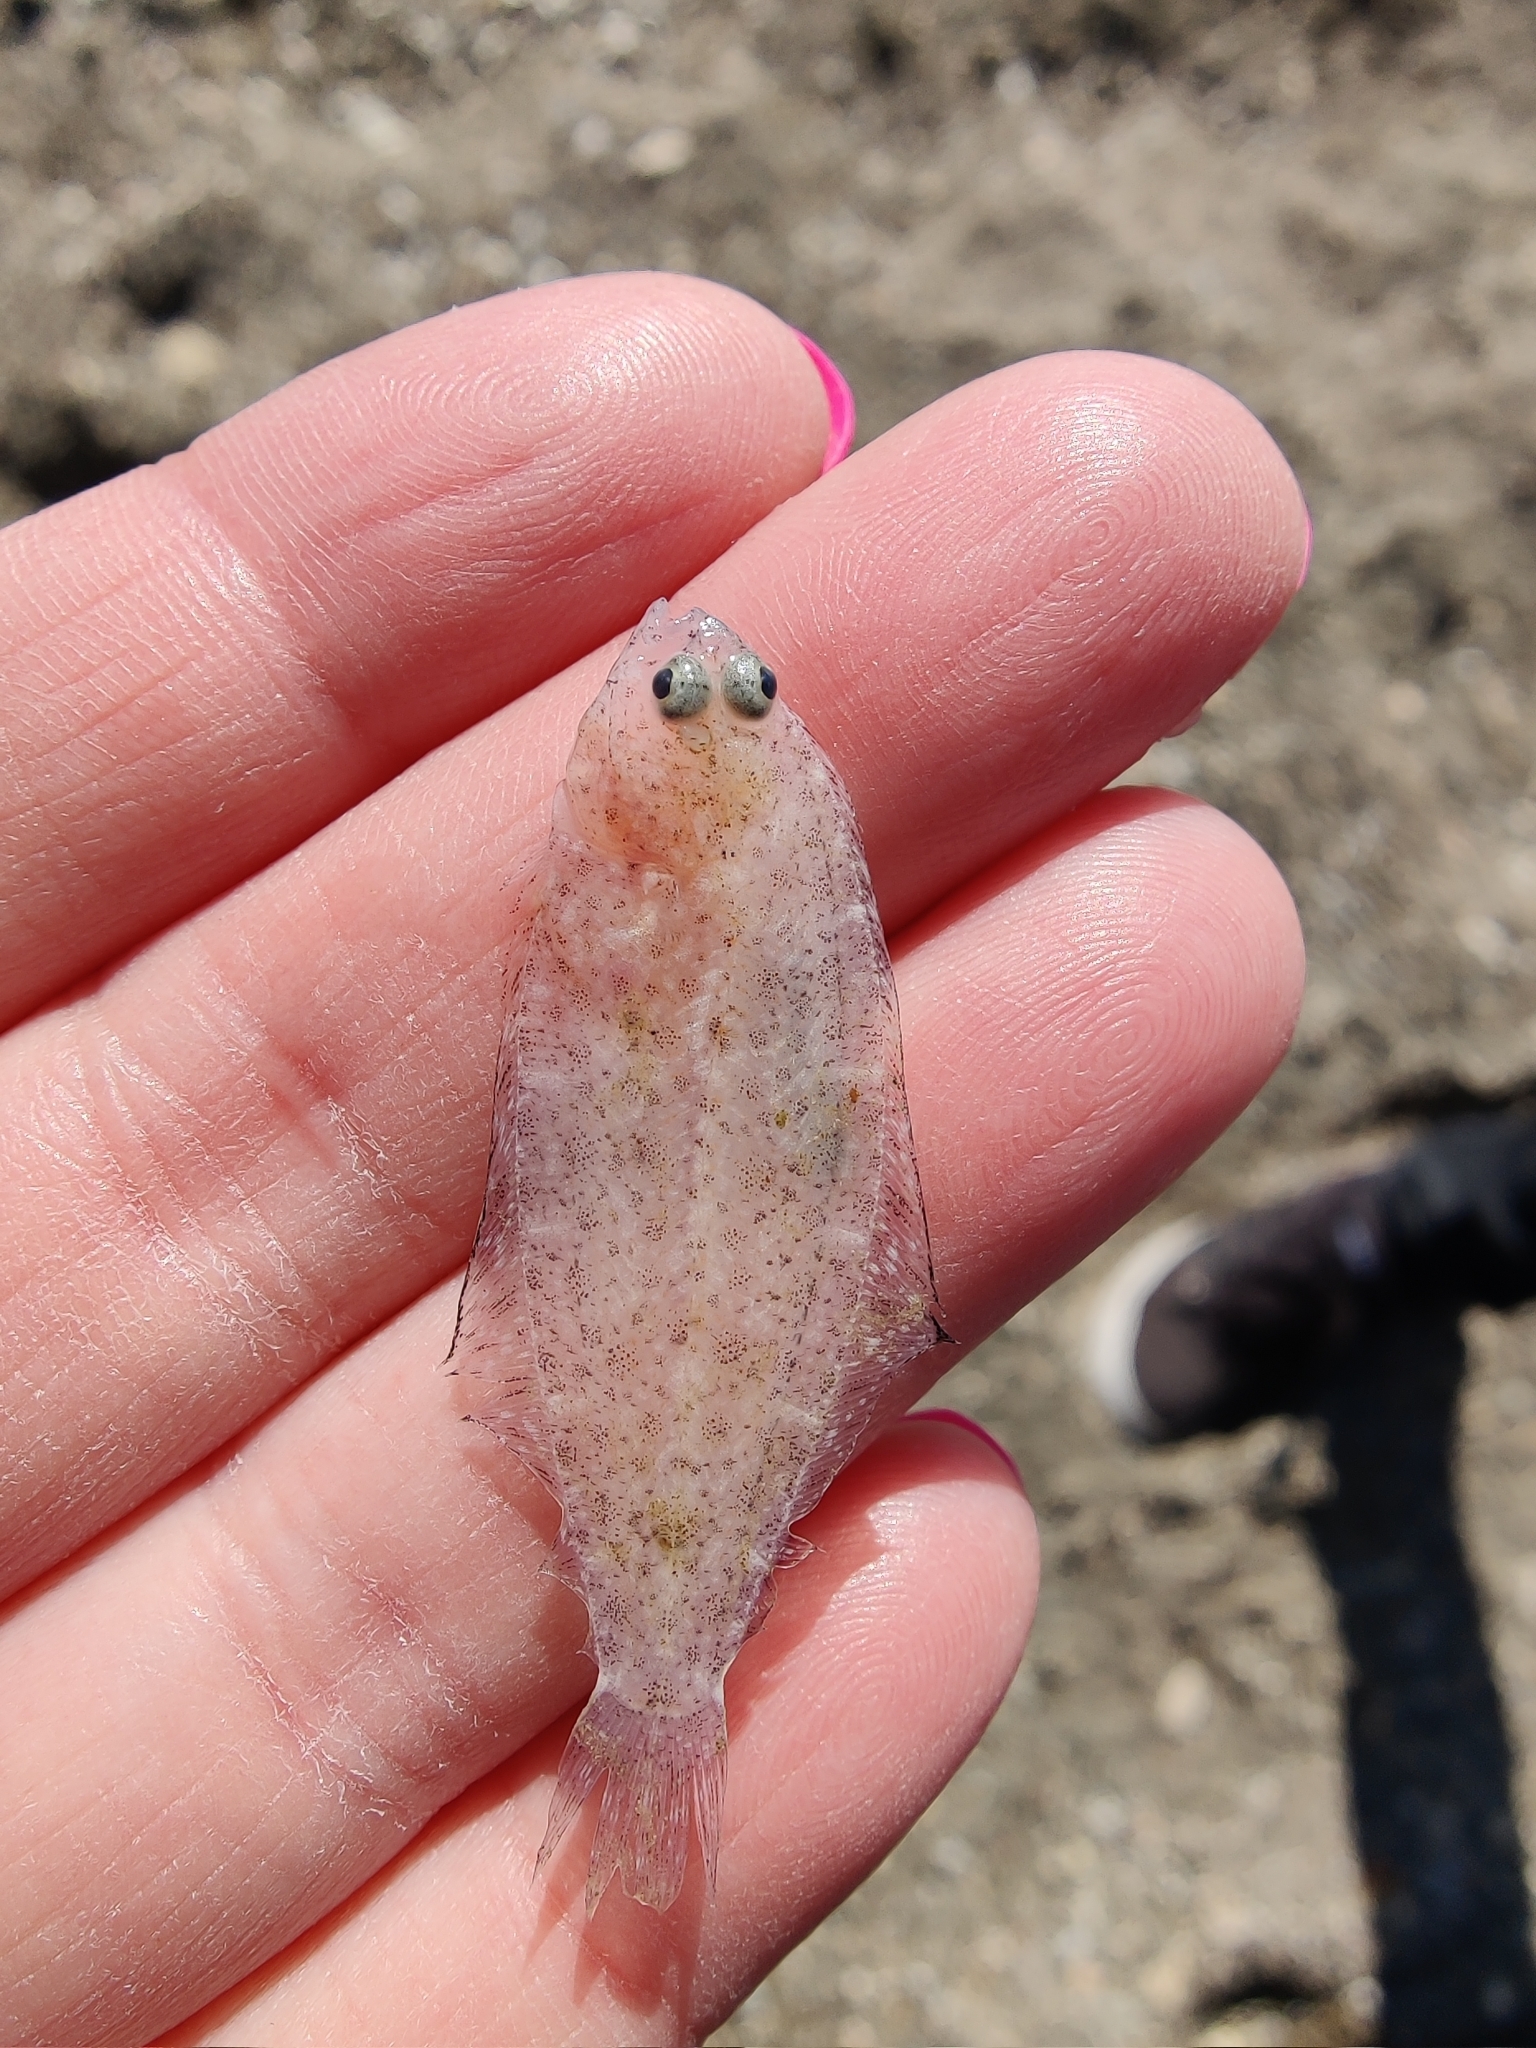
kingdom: Animalia
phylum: Chordata
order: Pleuronectiformes
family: Paralichthyidae
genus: Citharichthys
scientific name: Citharichthys stigmaeus
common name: Speckled sanddab
